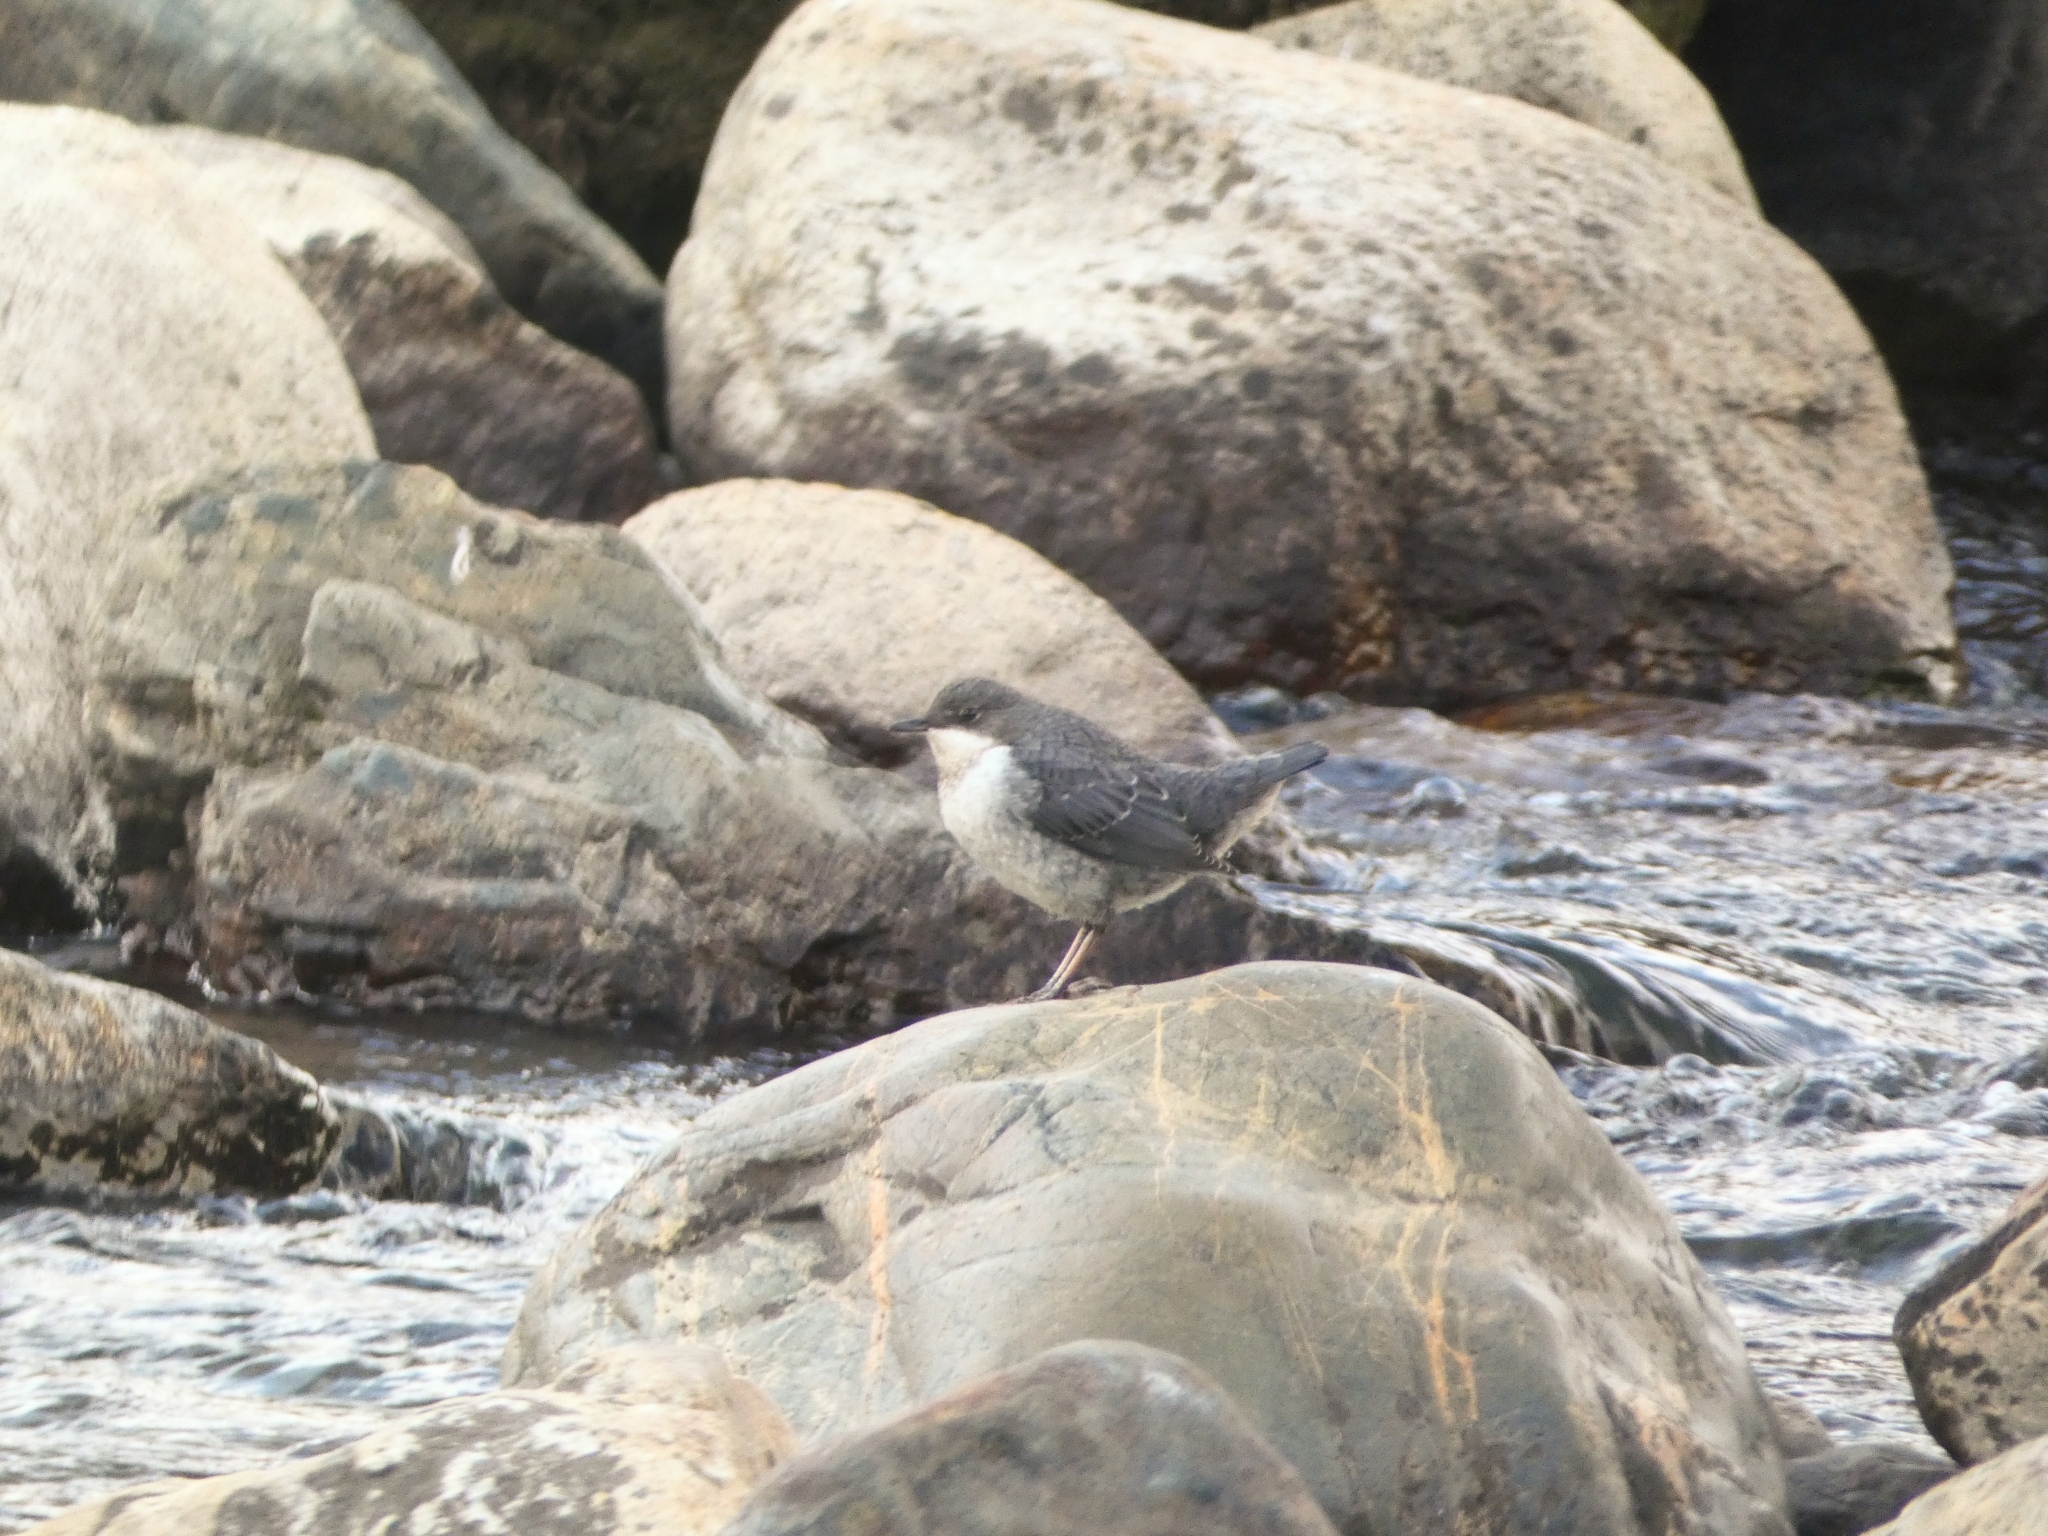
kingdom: Animalia
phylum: Chordata
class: Aves
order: Passeriformes
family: Cinclidae
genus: Cinclus
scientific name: Cinclus cinclus
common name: White-throated dipper
